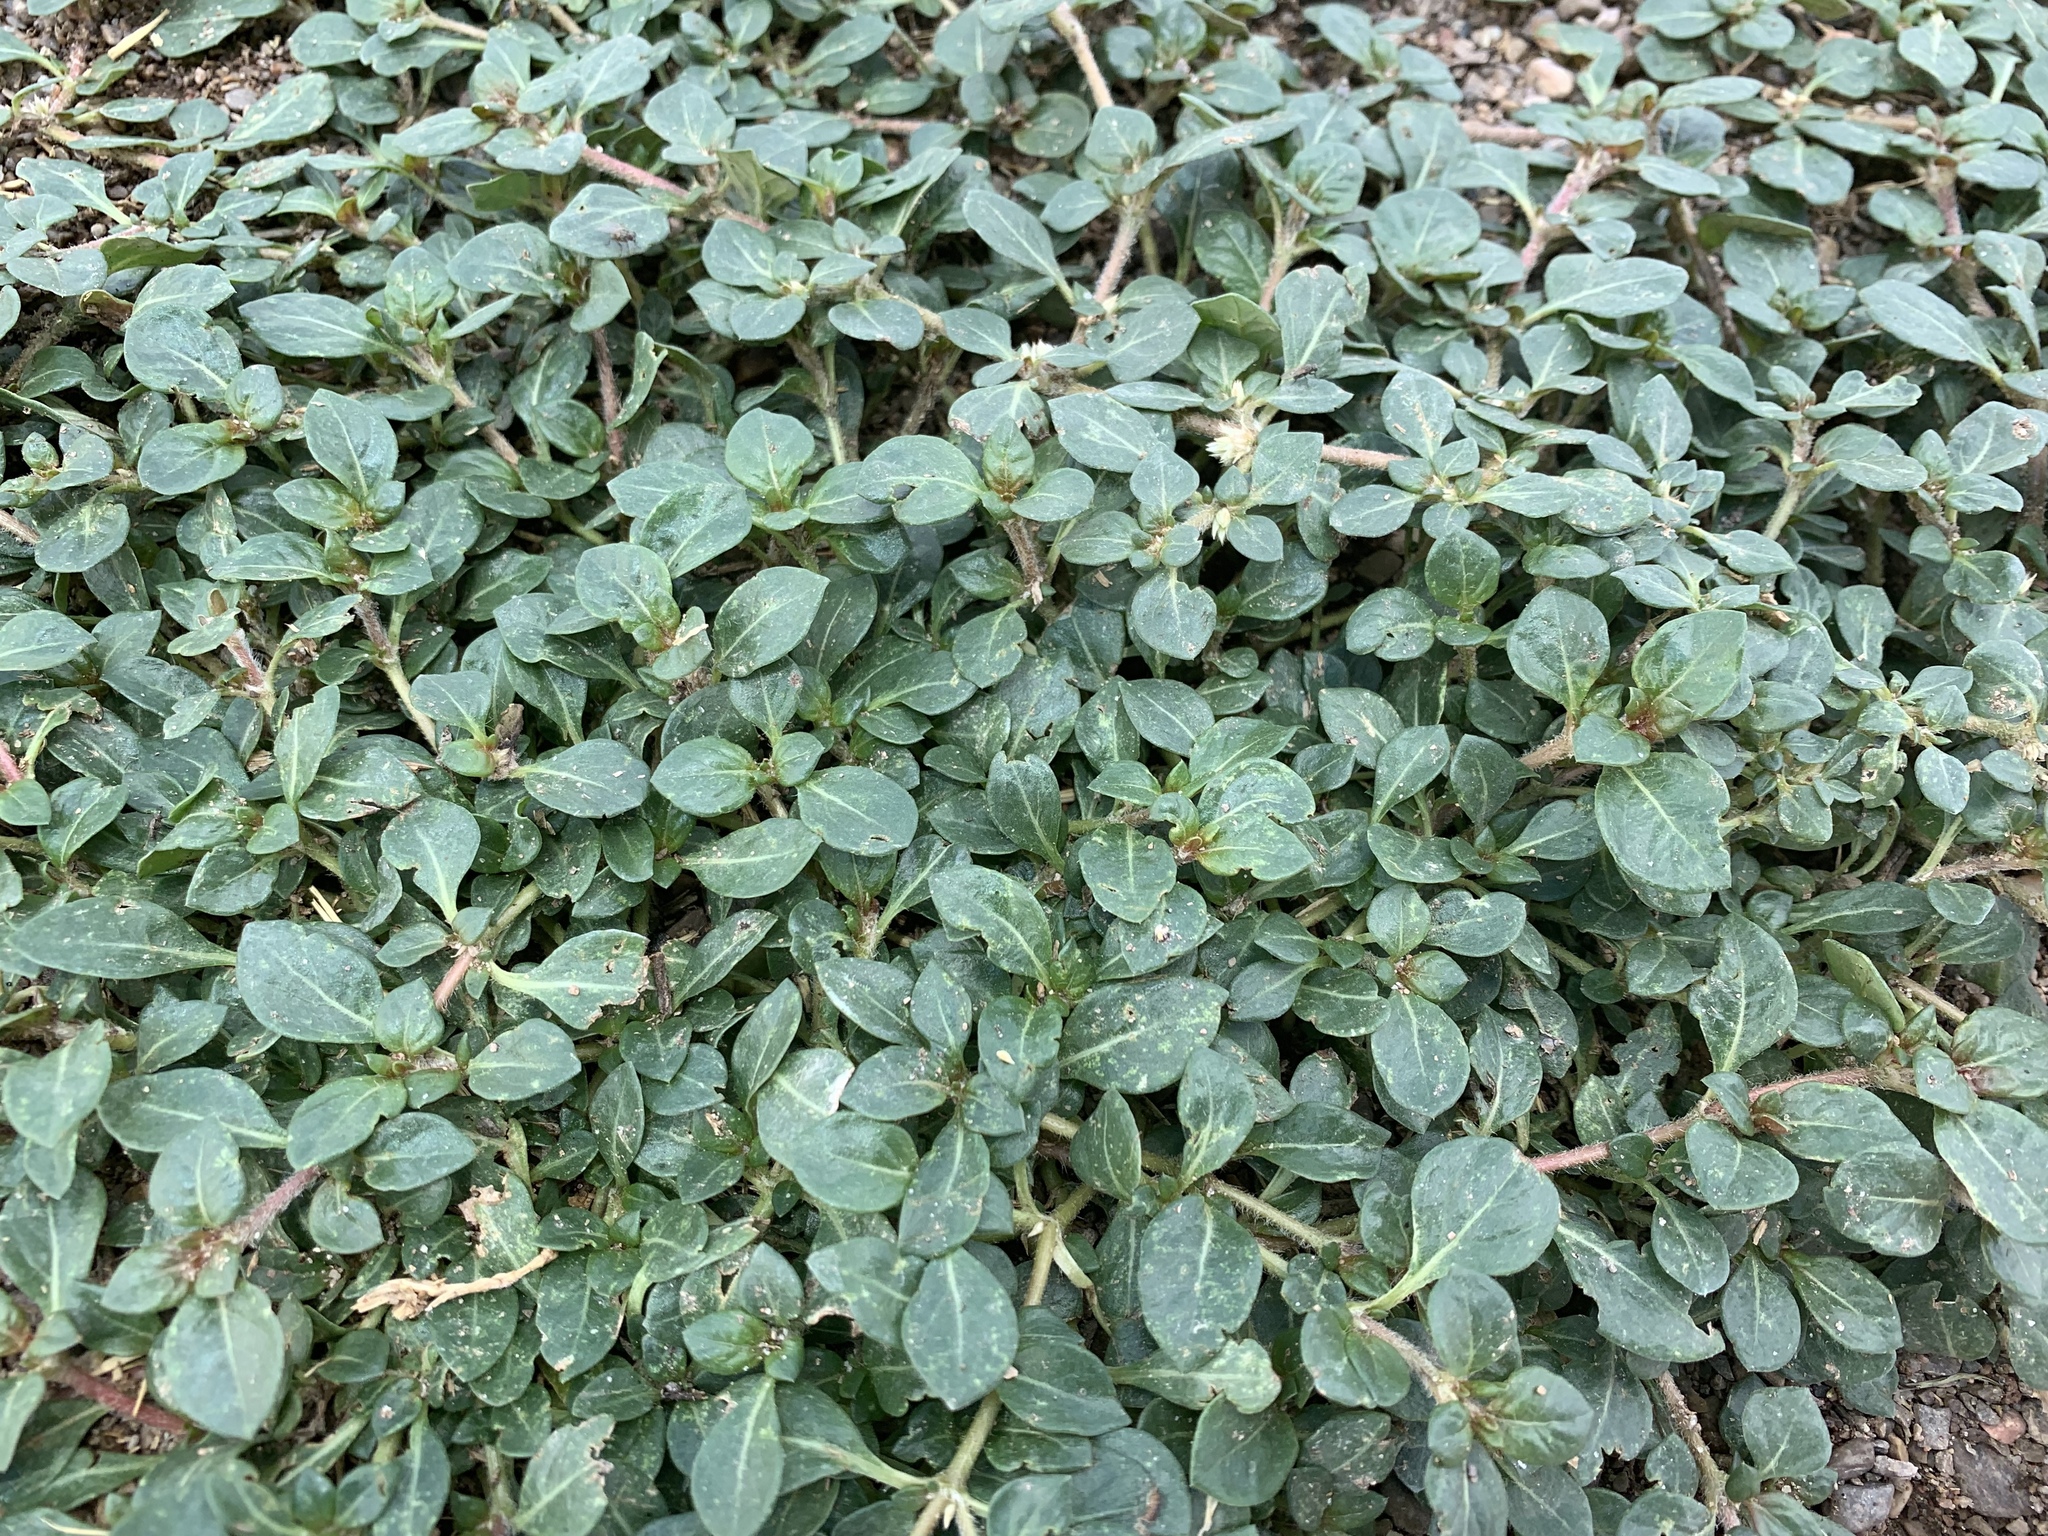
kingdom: Plantae
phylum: Tracheophyta
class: Magnoliopsida
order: Caryophyllales
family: Amaranthaceae
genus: Alternanthera
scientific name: Alternanthera caracasana
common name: Washerwoman
